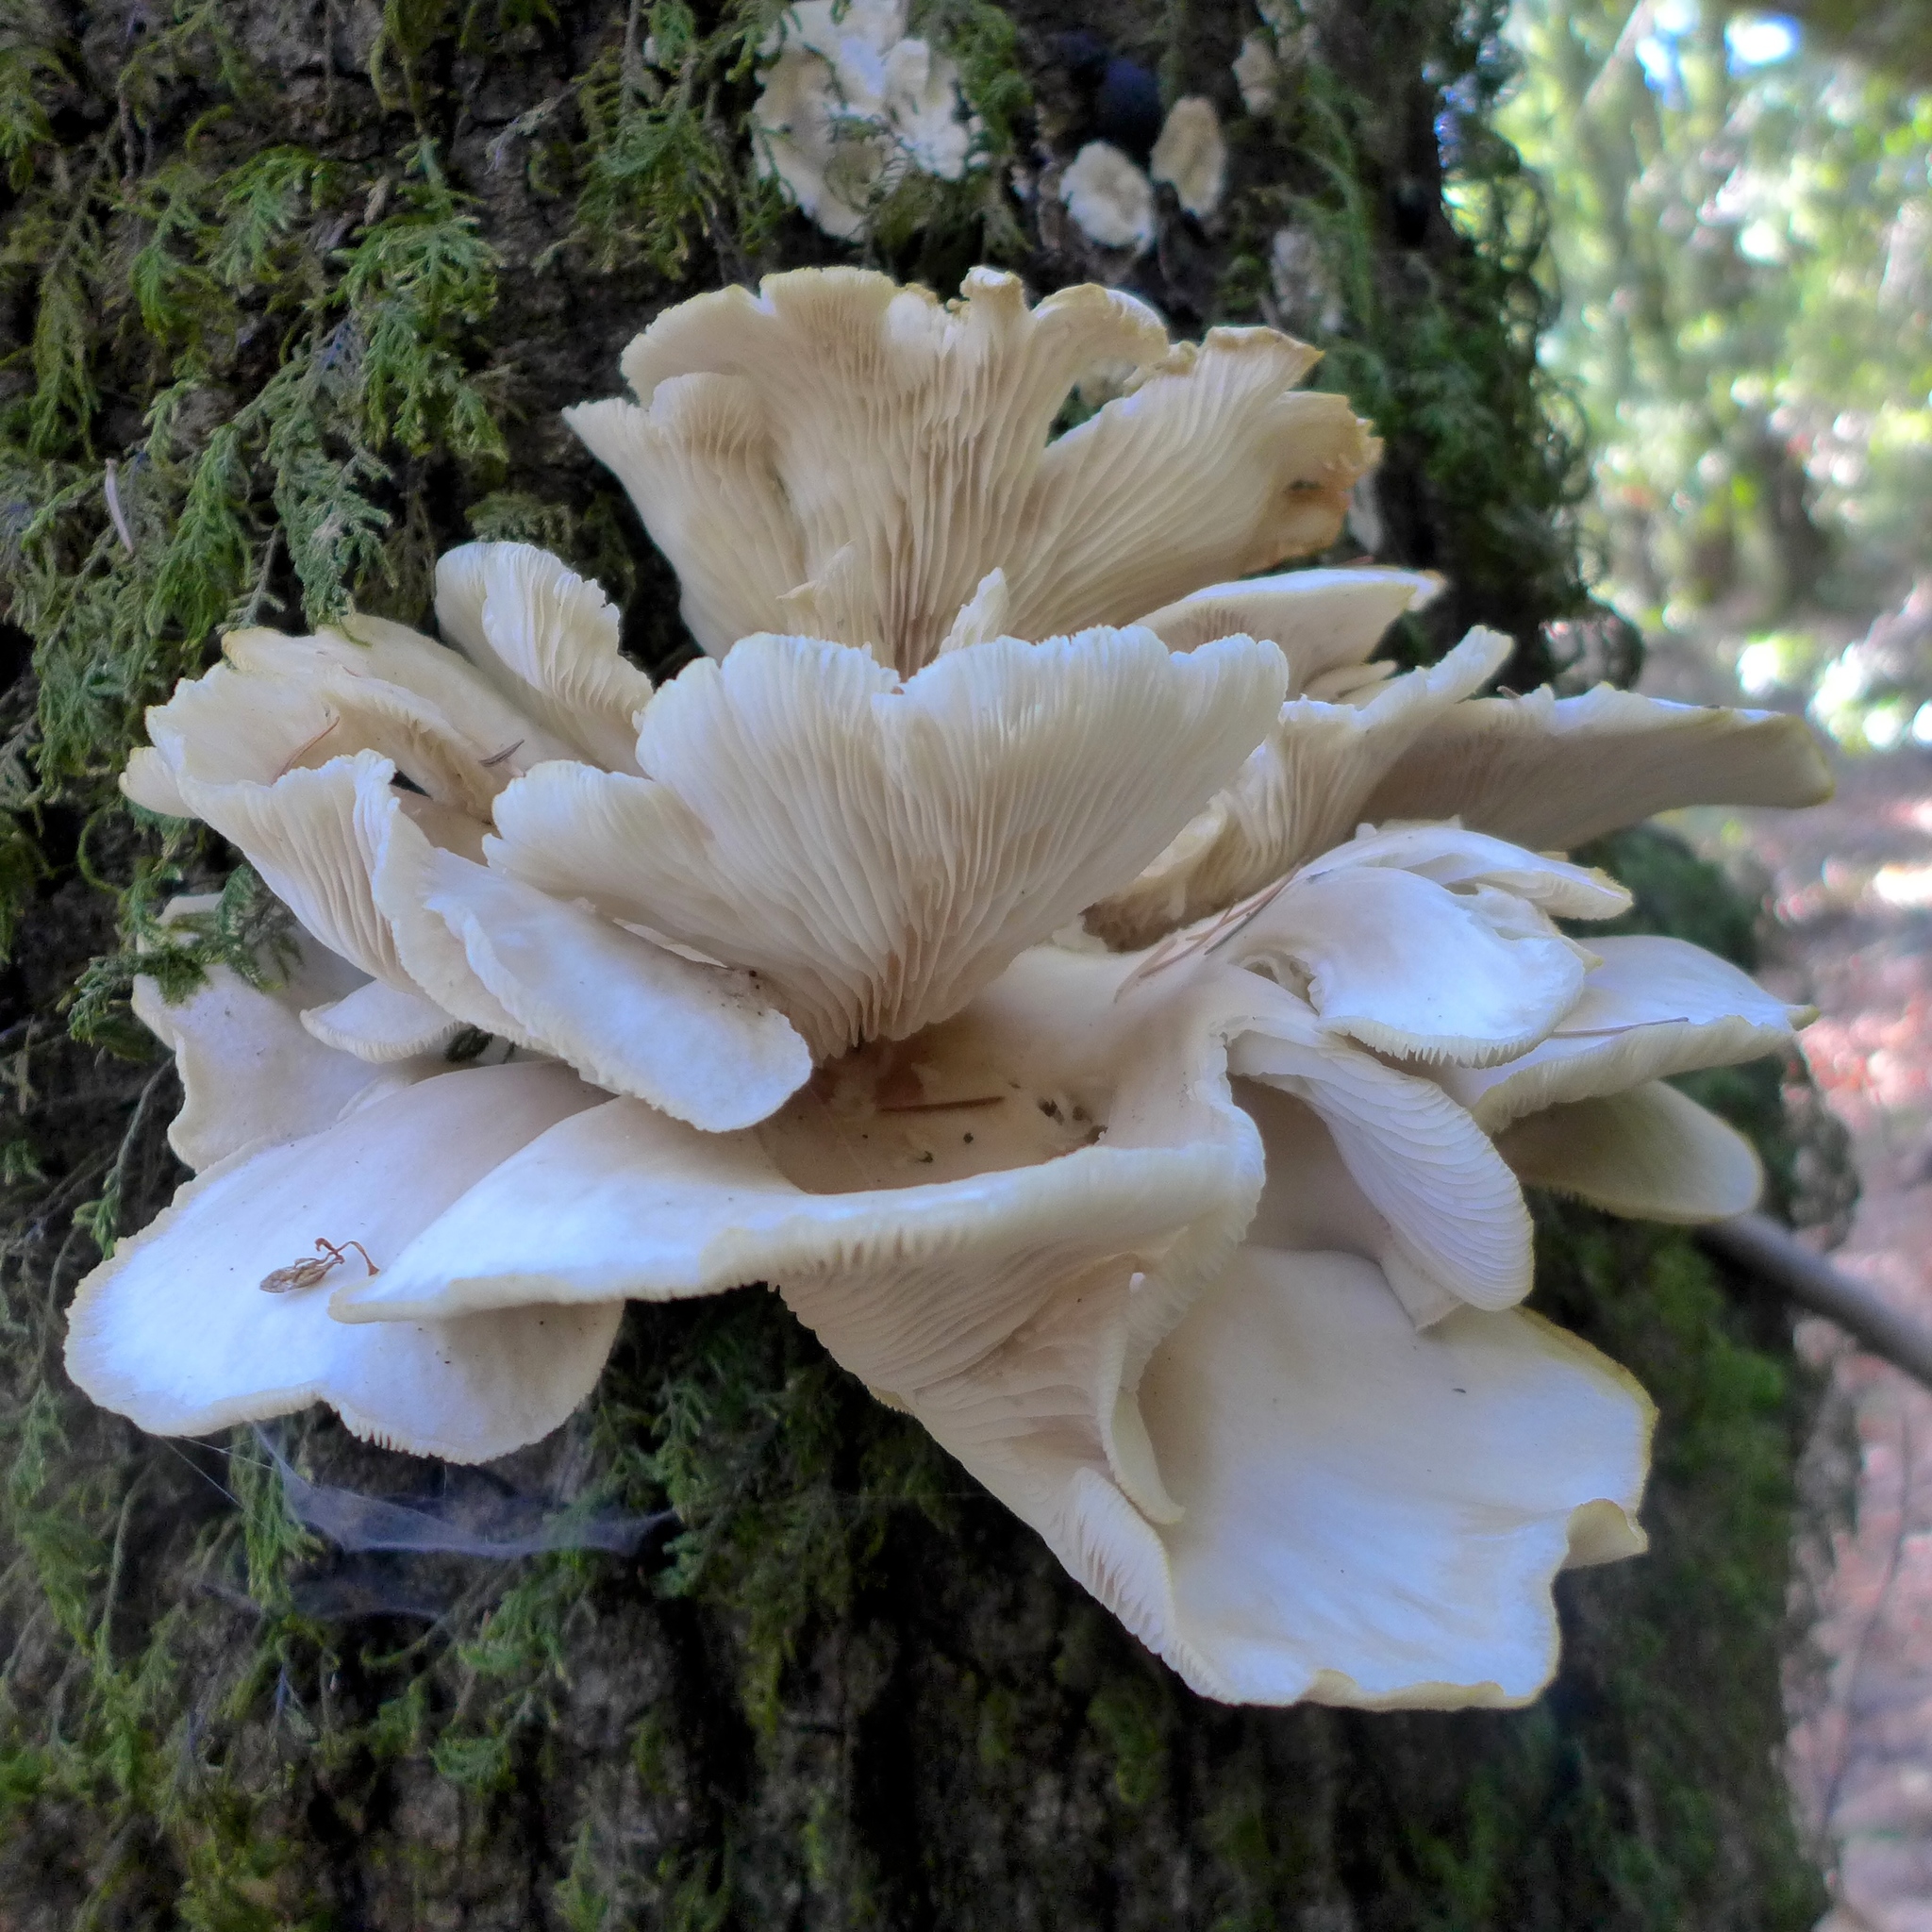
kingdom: Fungi
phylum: Basidiomycota
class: Agaricomycetes
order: Agaricales
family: Pleurotaceae
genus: Pleurotus
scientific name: Pleurotus ostreatus
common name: Oyster mushroom
